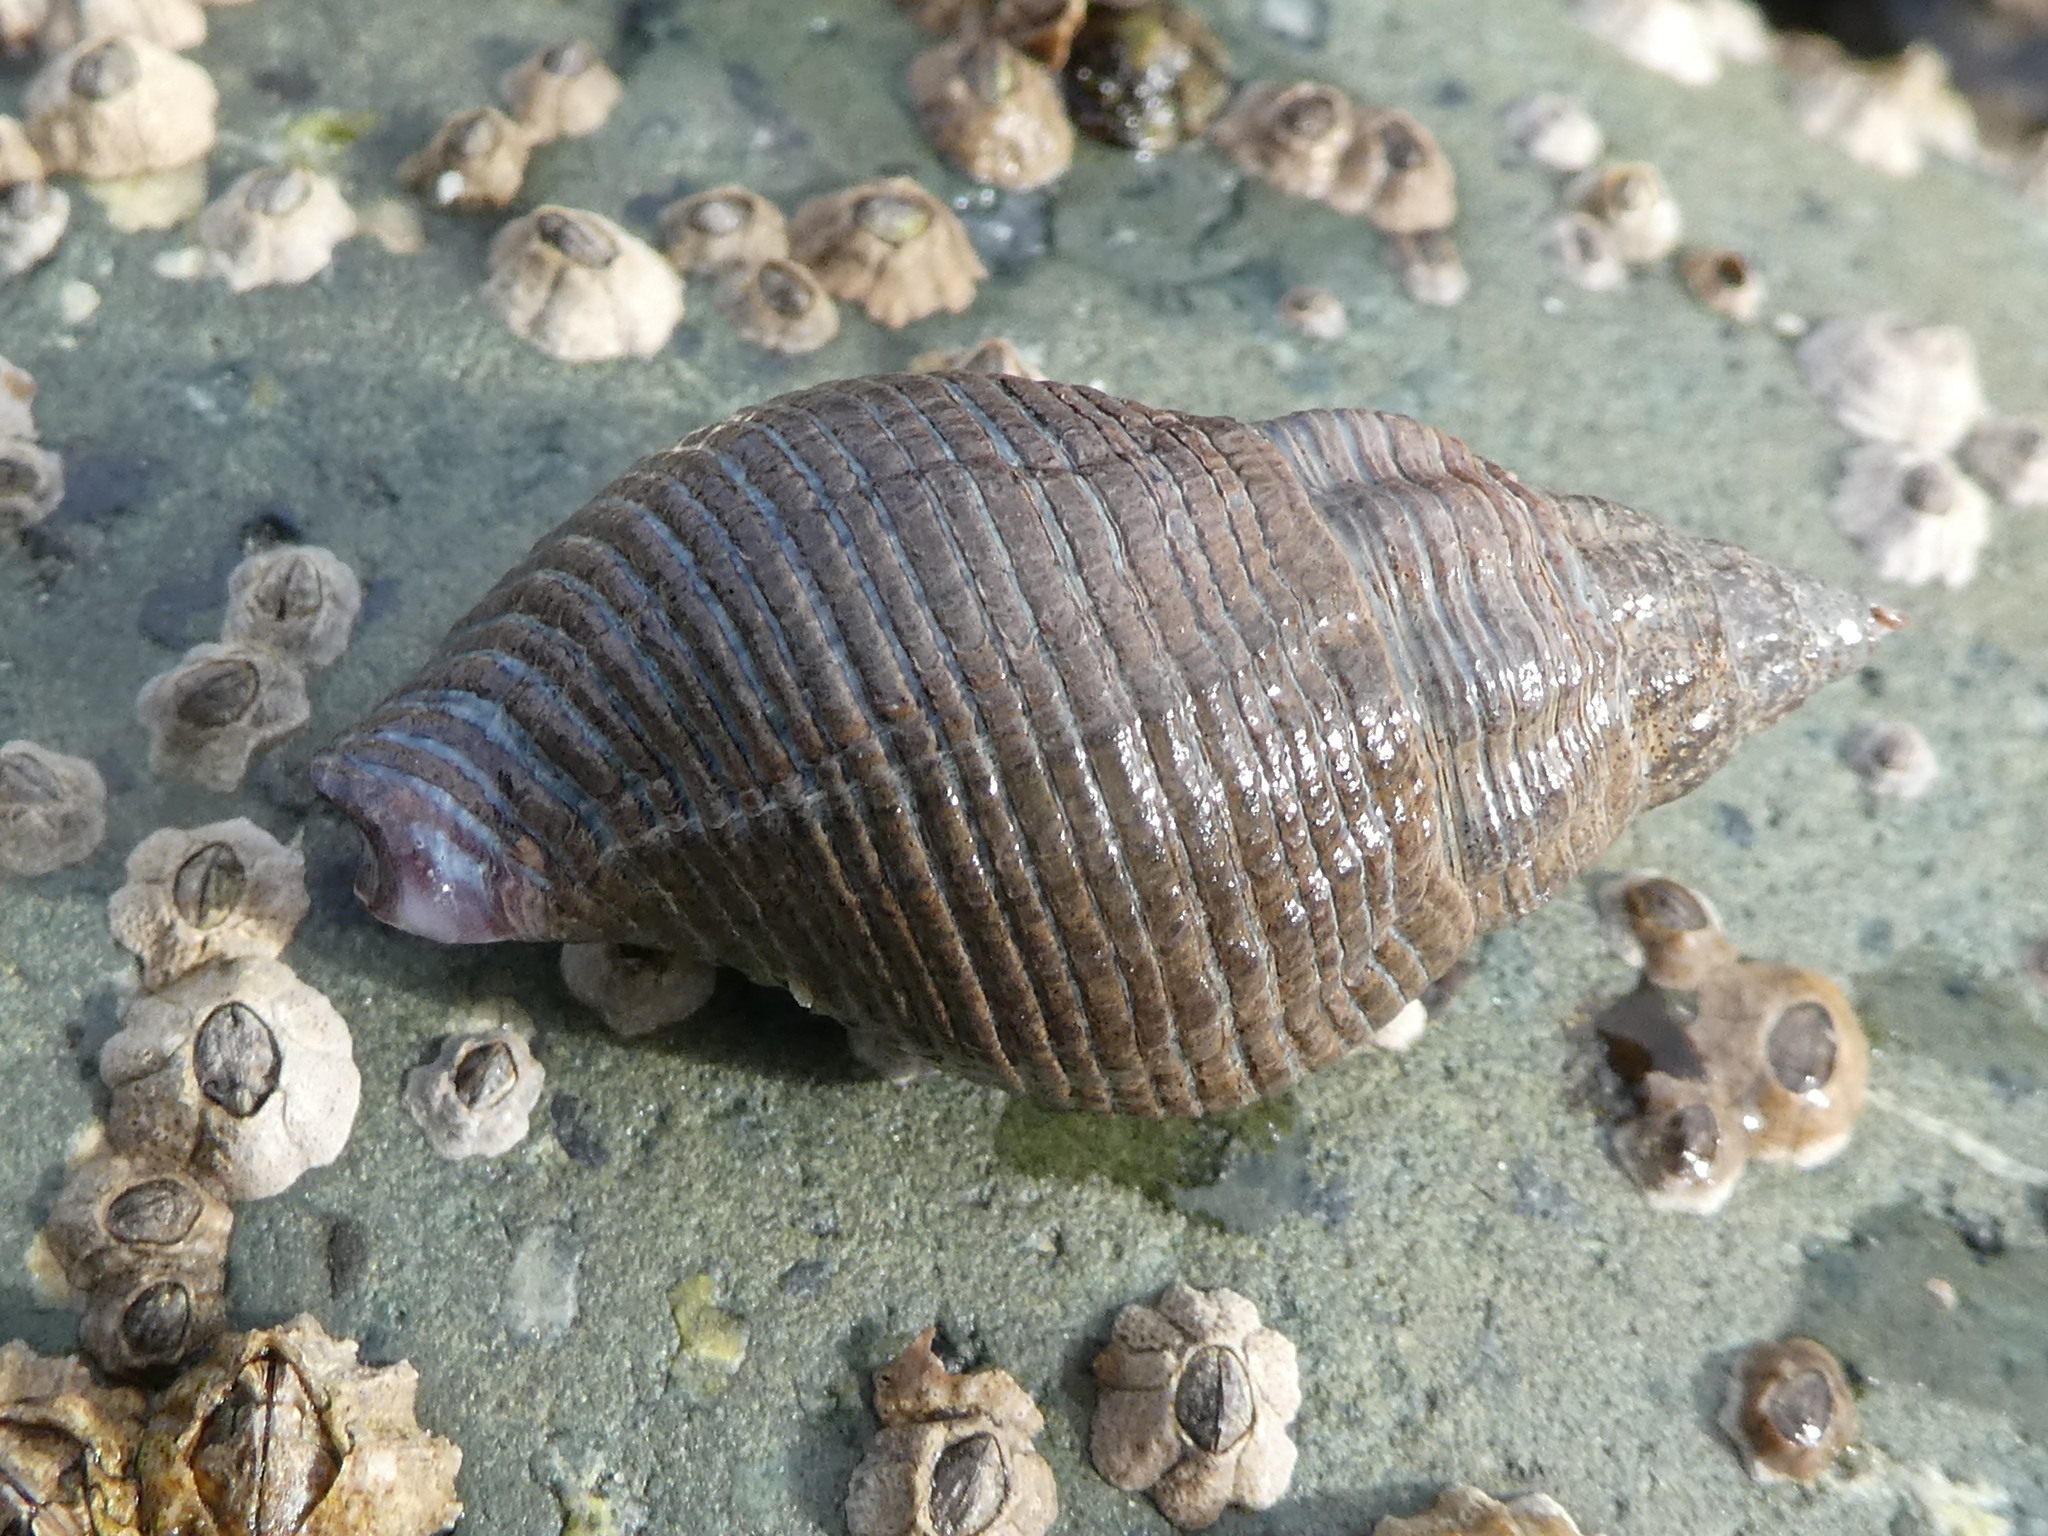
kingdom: Animalia
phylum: Mollusca
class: Gastropoda
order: Neogastropoda
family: Tudiclidae
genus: Lirabuccinum
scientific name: Lirabuccinum dirum
